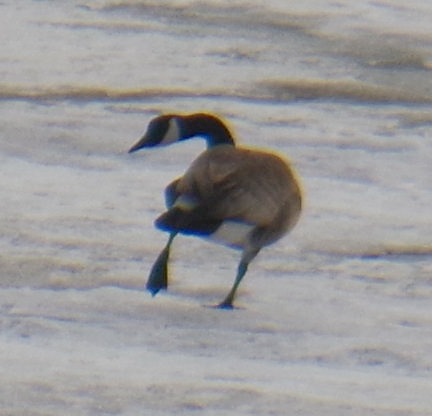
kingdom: Animalia
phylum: Chordata
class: Aves
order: Anseriformes
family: Anatidae
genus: Branta
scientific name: Branta canadensis
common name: Canada goose
